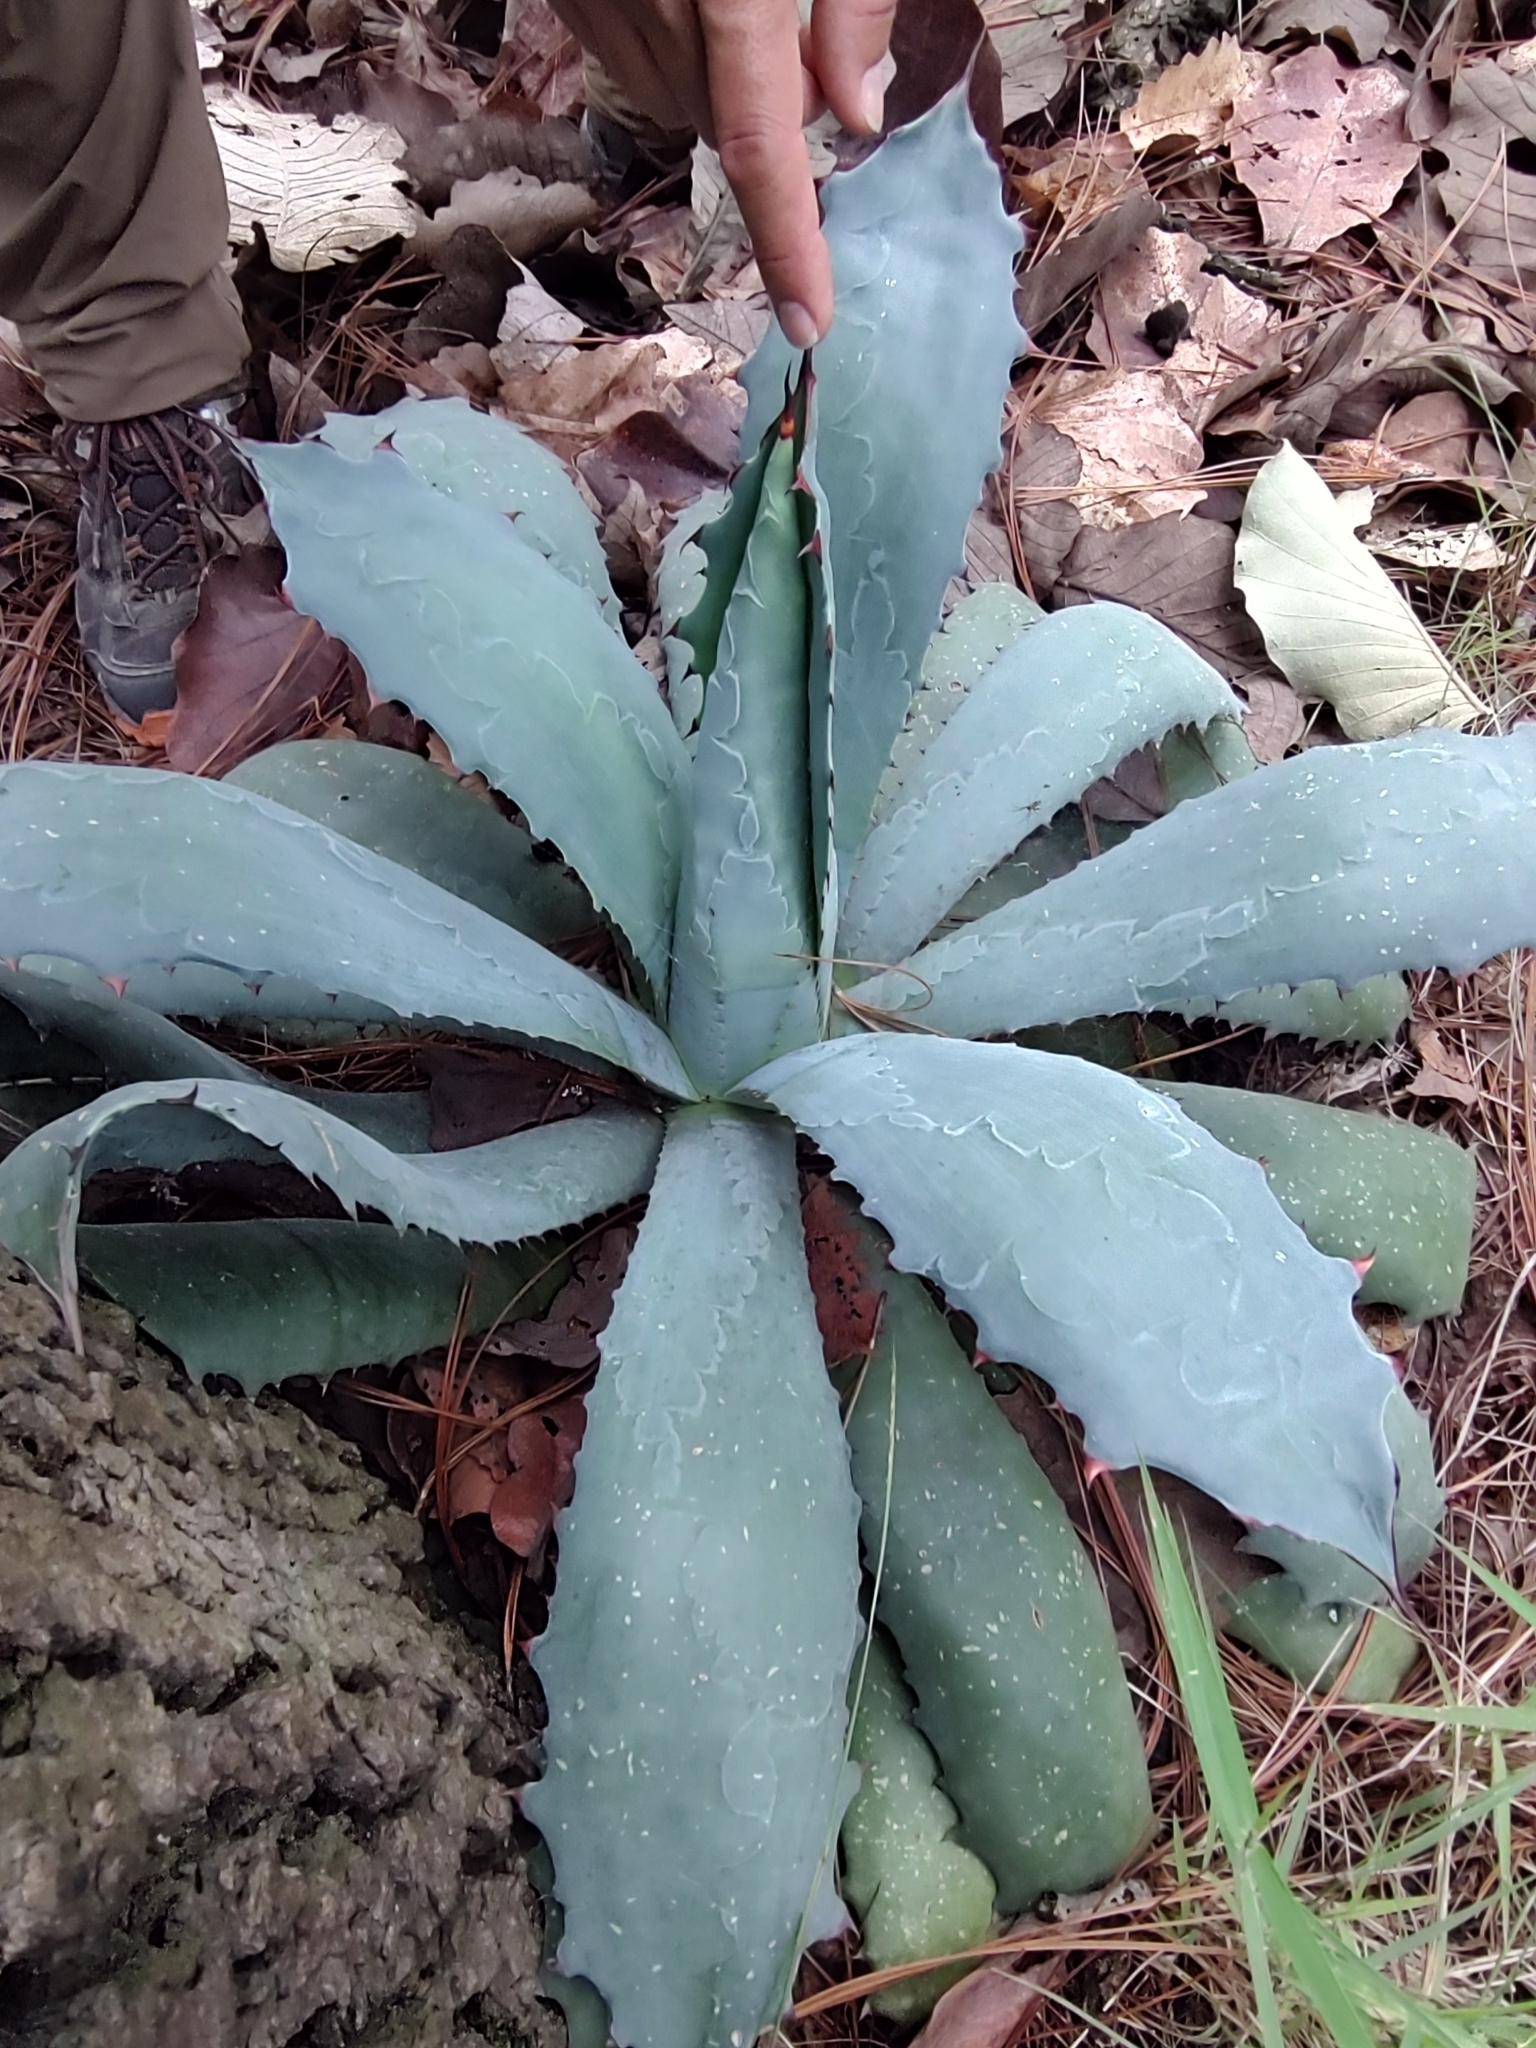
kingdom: Plantae
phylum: Tracheophyta
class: Liliopsida
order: Asparagales
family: Asparagaceae
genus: Agave
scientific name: Agave guadalajarana
